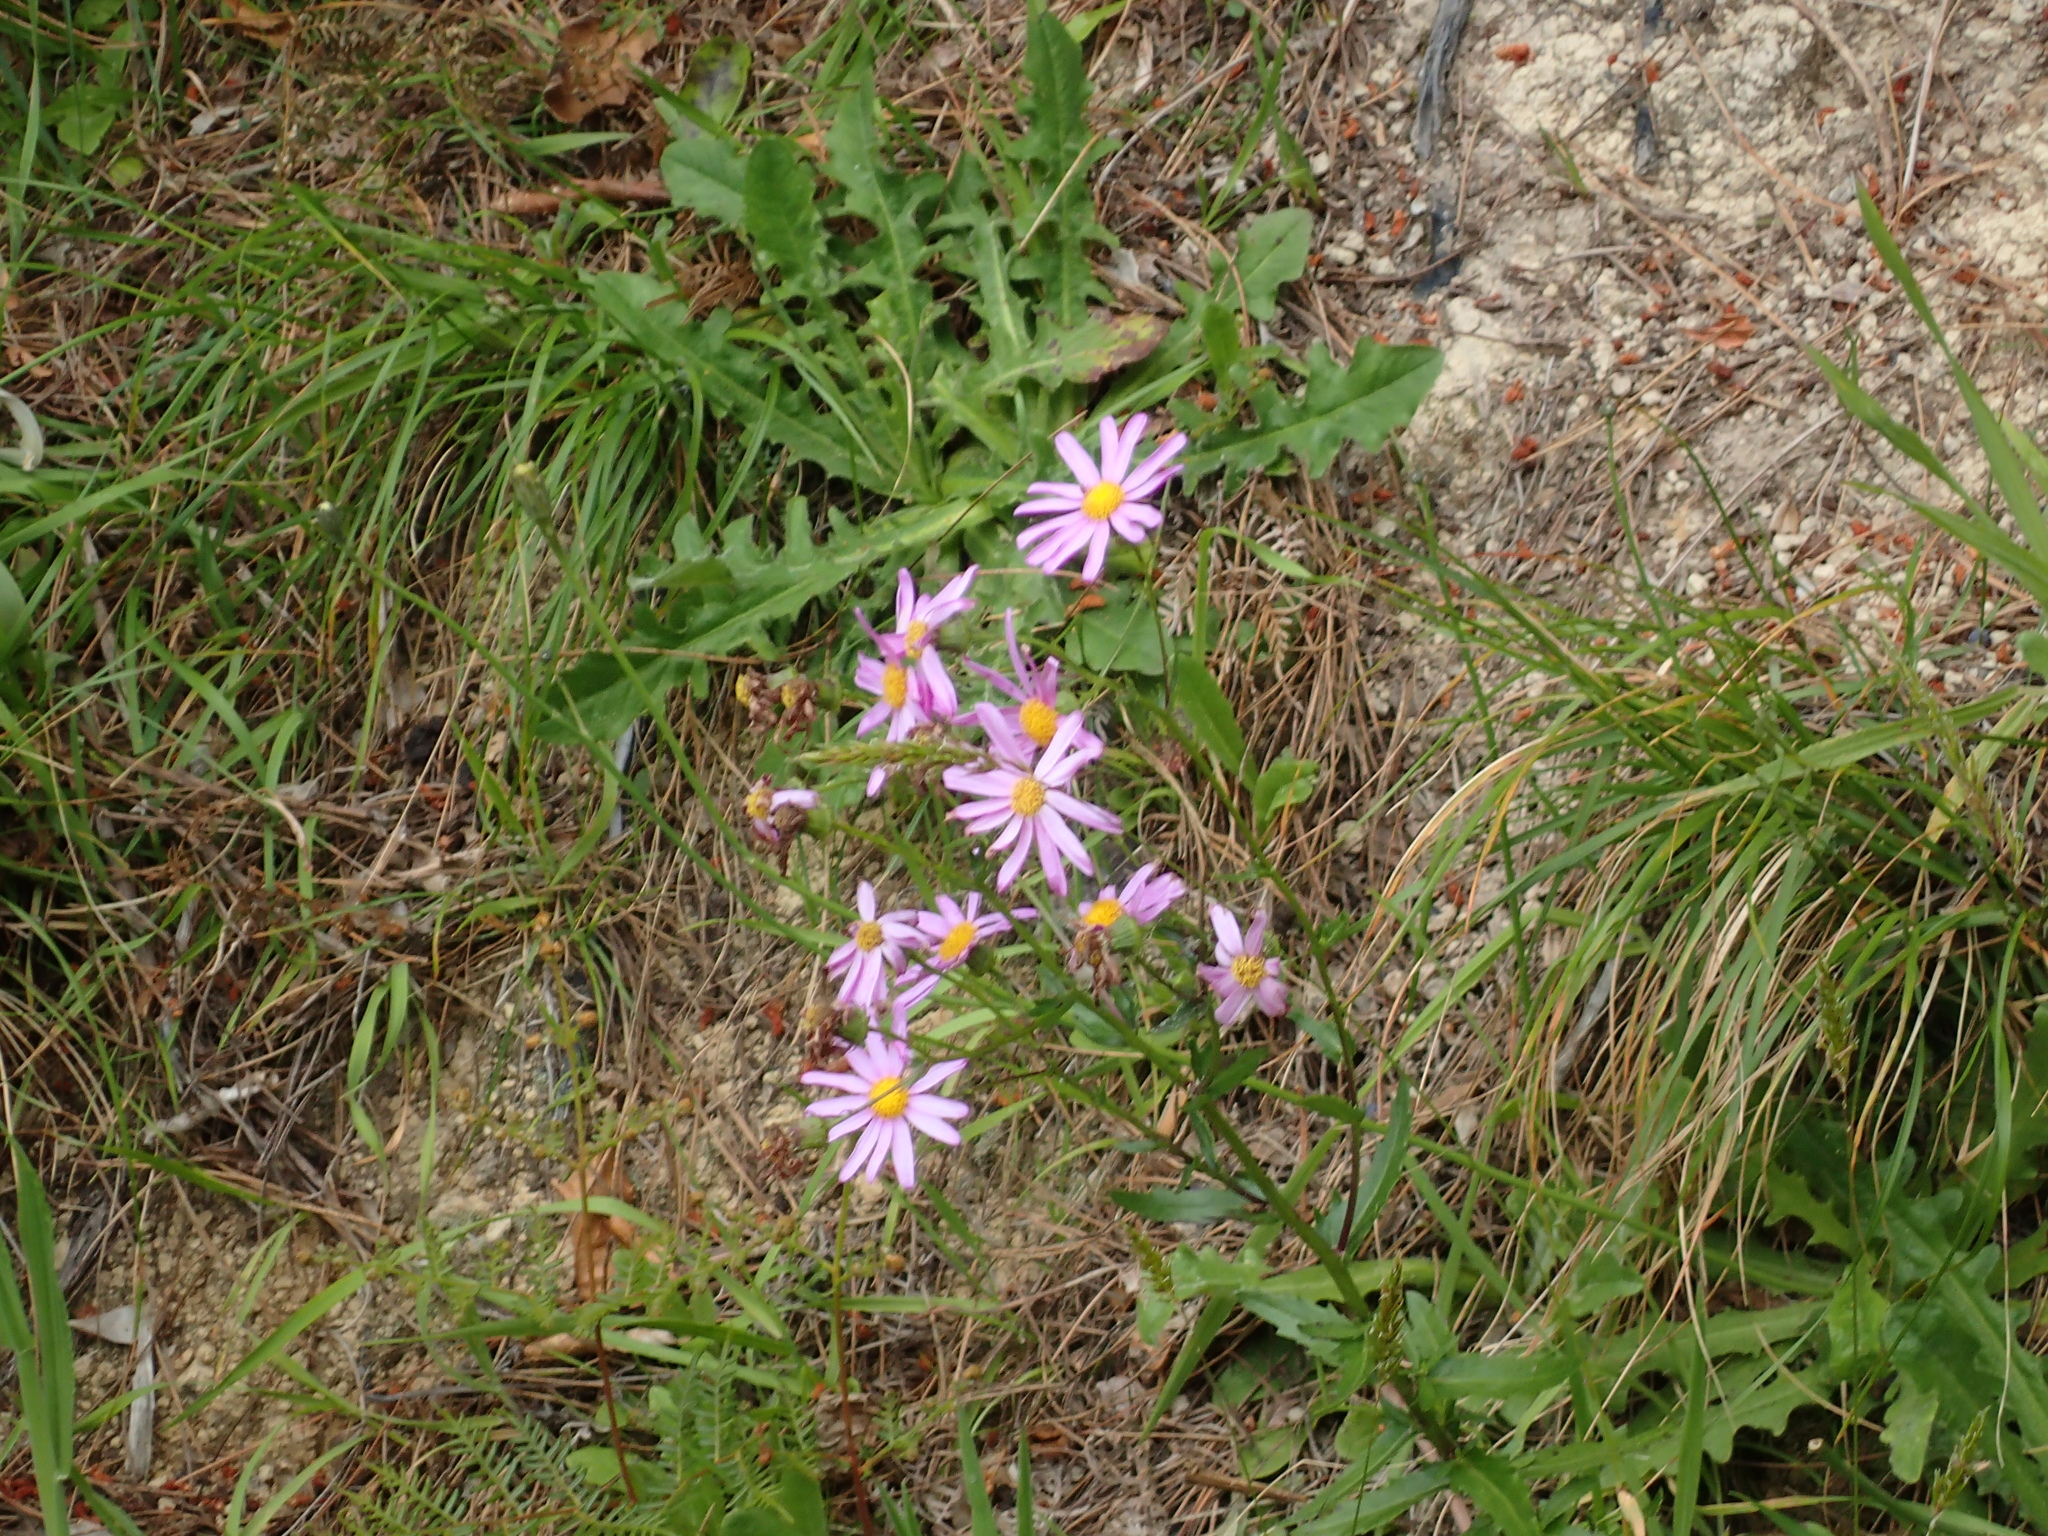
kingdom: Plantae
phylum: Tracheophyta
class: Magnoliopsida
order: Asterales
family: Asteraceae
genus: Senecio
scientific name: Senecio glastifolius
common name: Woad-leaved ragwort
